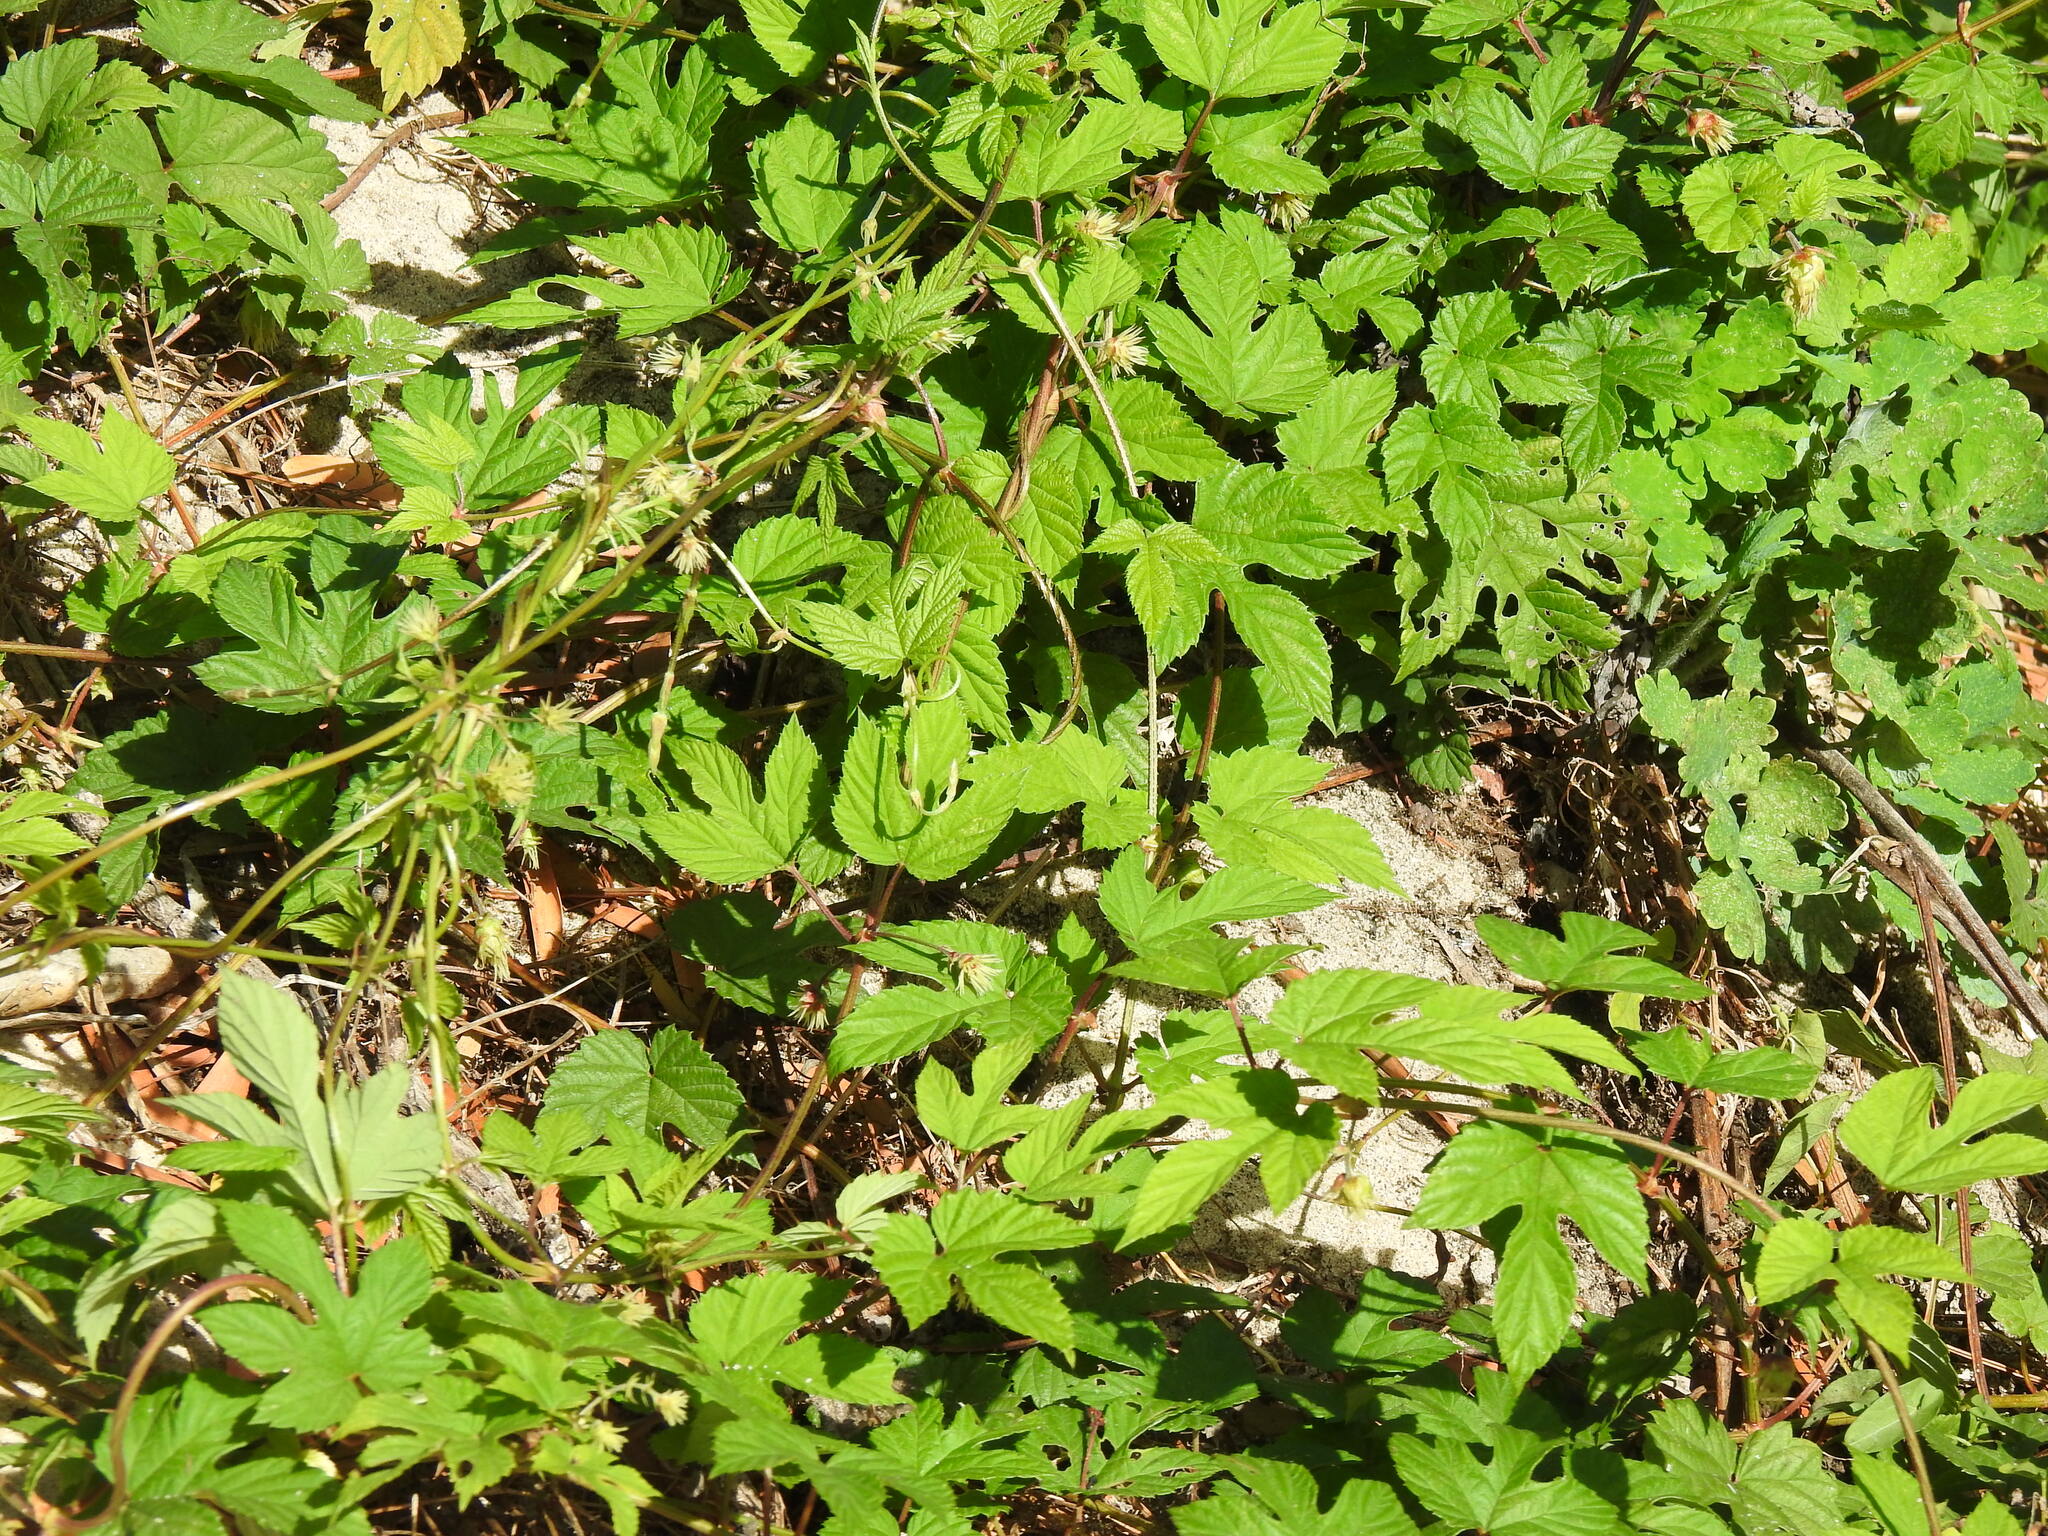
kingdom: Plantae
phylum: Tracheophyta
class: Magnoliopsida
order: Rosales
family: Cannabaceae
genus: Humulus
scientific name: Humulus lupulus
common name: Hop
